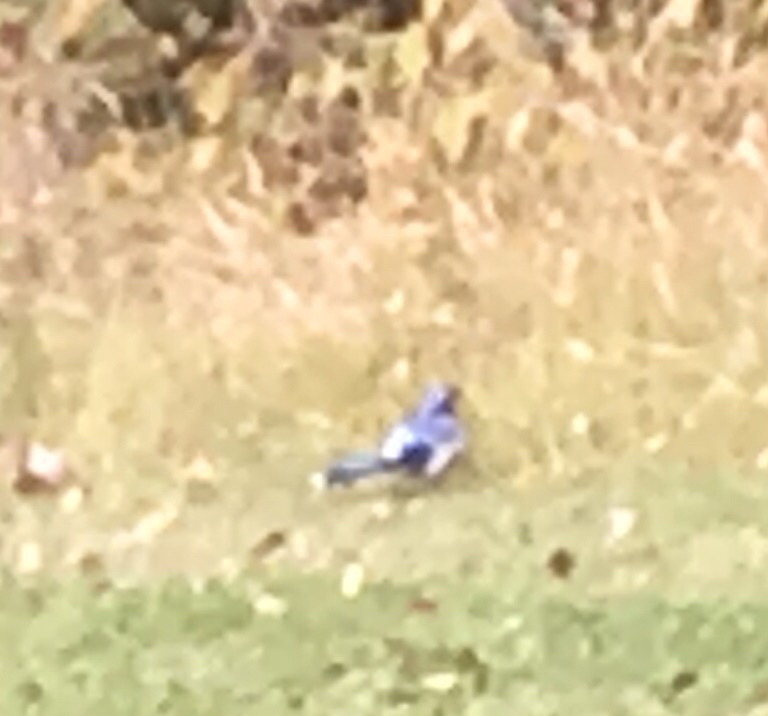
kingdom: Animalia
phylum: Chordata
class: Aves
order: Passeriformes
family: Corvidae
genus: Cyanocitta
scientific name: Cyanocitta cristata
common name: Blue jay
